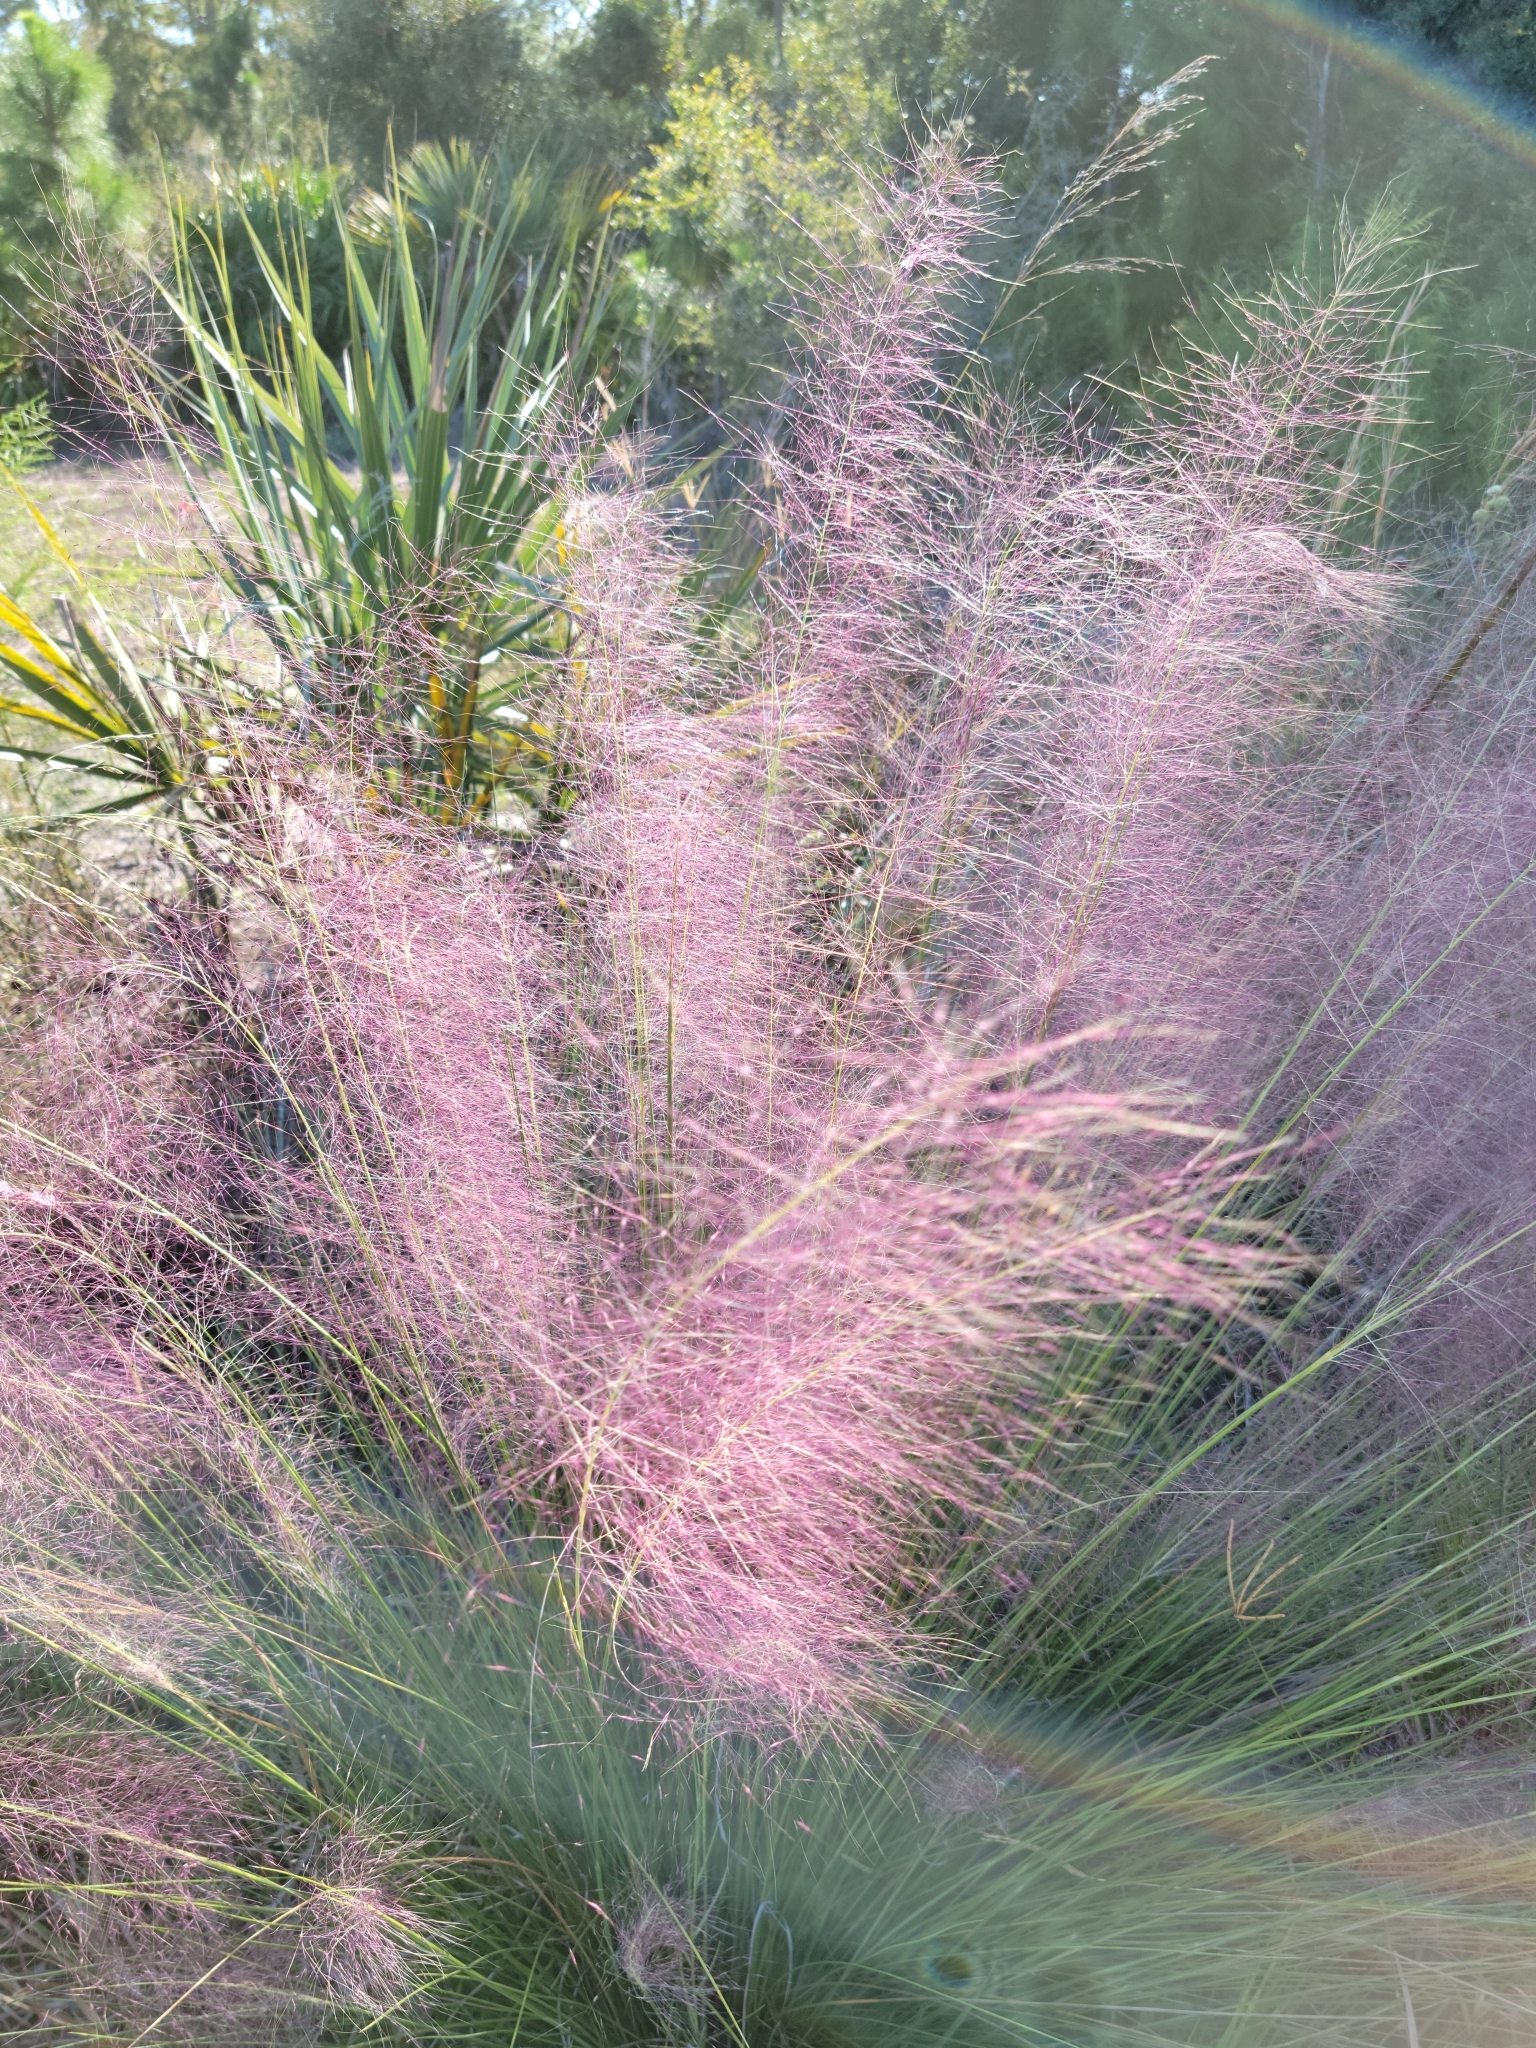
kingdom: Plantae
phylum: Tracheophyta
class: Liliopsida
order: Poales
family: Poaceae
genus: Muhlenbergia
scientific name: Muhlenbergia sericea
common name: Dune-hair grass
